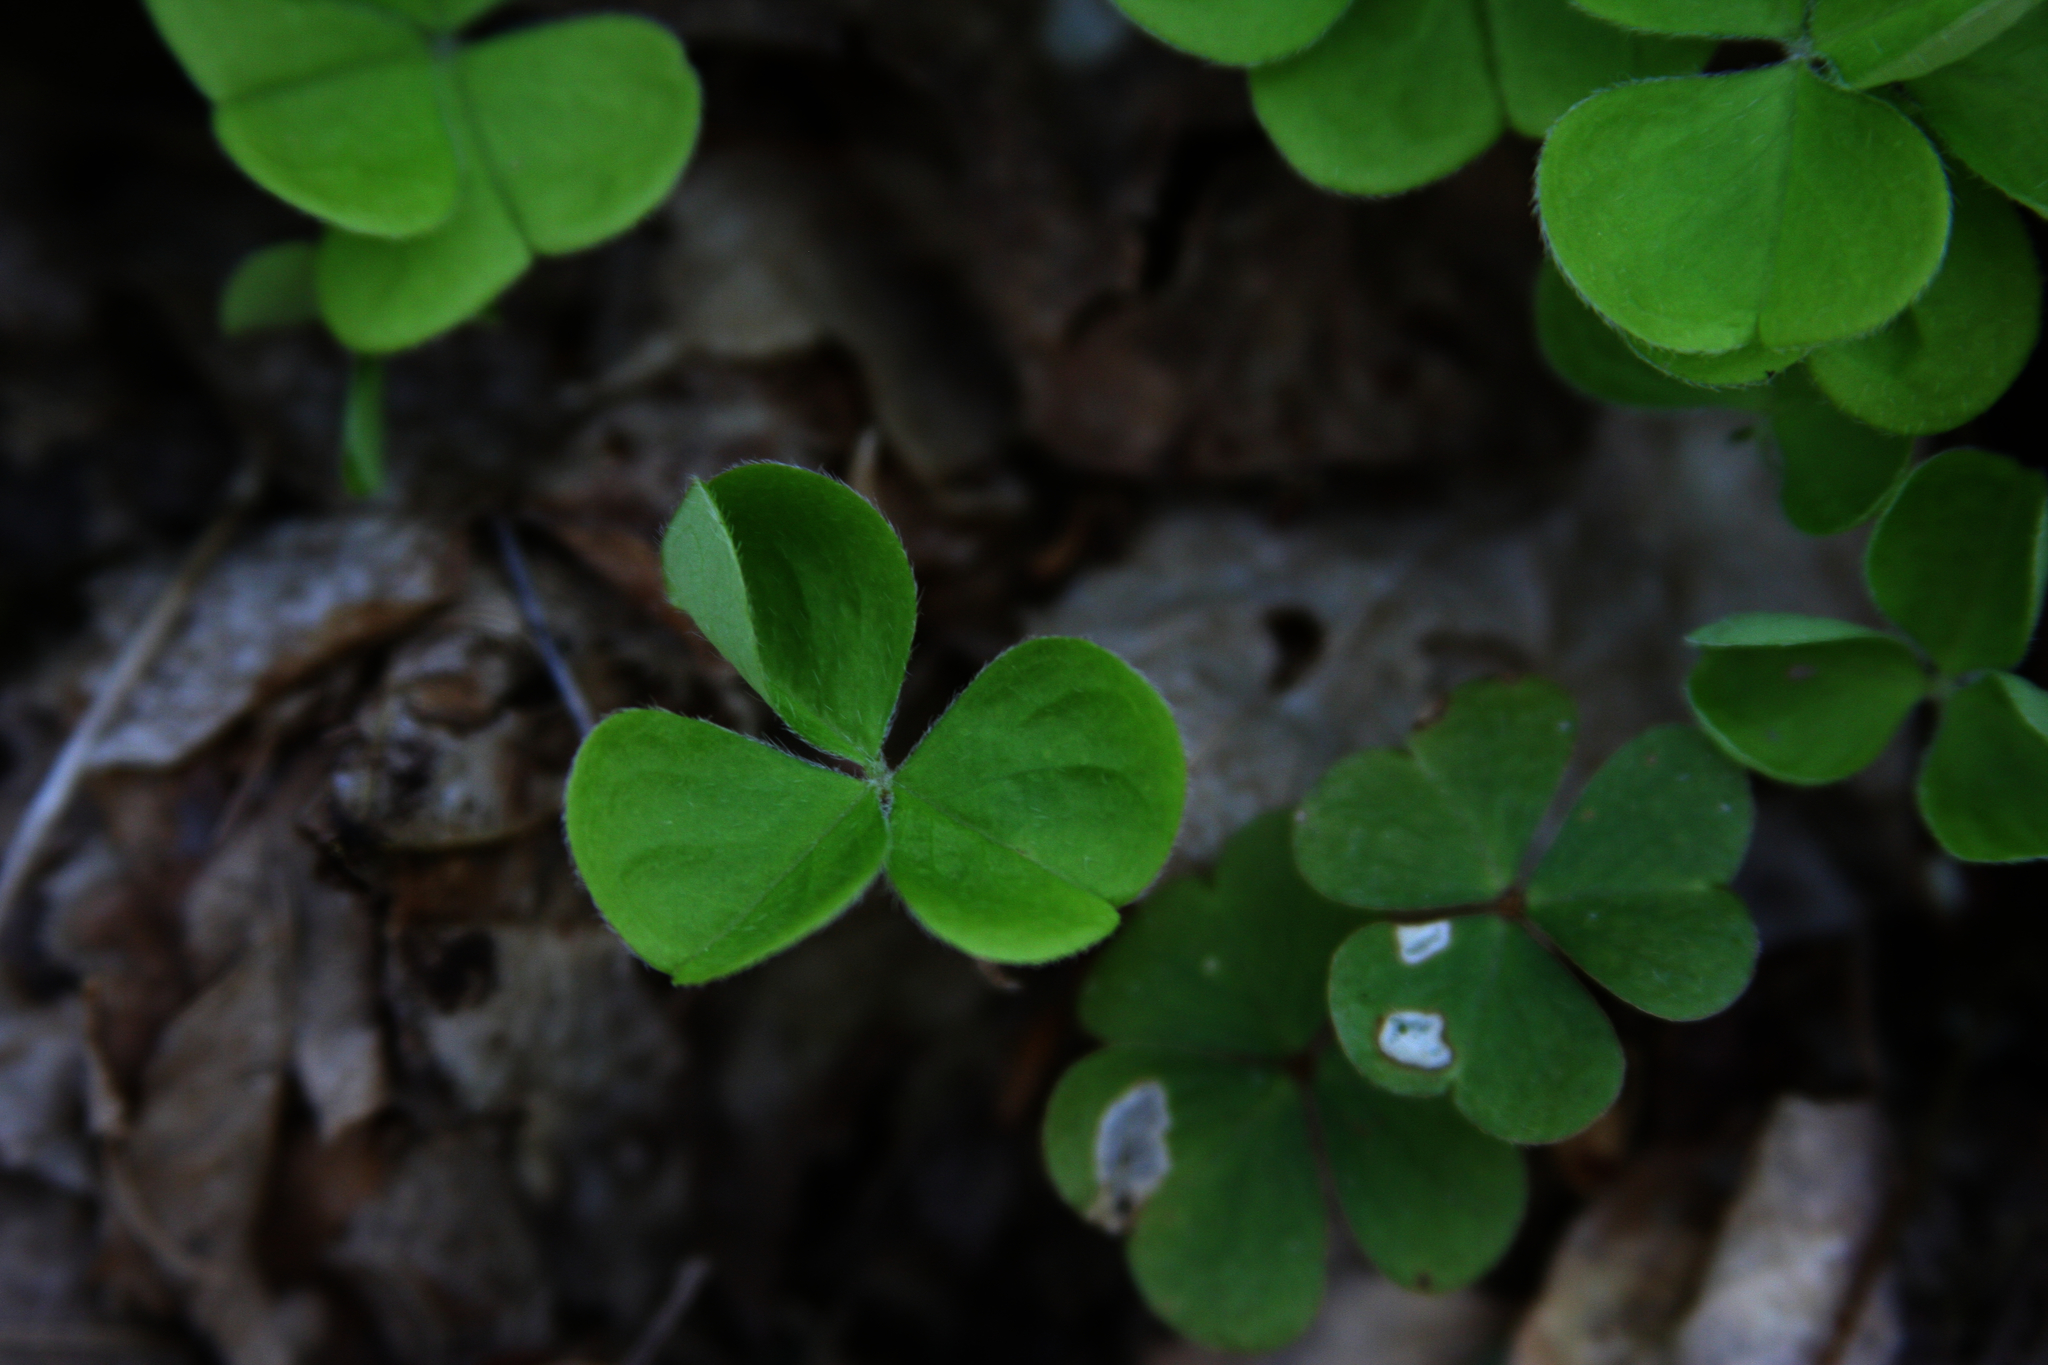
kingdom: Plantae
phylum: Tracheophyta
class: Magnoliopsida
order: Oxalidales
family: Oxalidaceae
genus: Oxalis
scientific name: Oxalis montana
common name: American wood-sorrel
